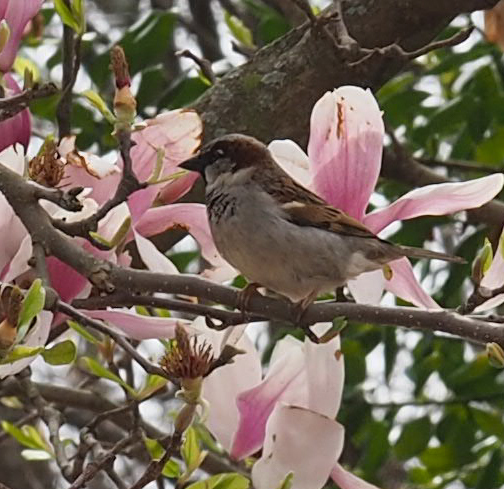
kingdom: Animalia
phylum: Chordata
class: Aves
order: Passeriformes
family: Passeridae
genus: Passer
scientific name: Passer domesticus
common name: House sparrow
